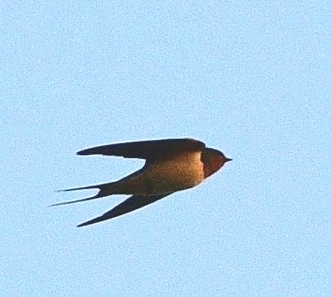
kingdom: Animalia
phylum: Chordata
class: Aves
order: Passeriformes
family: Hirundinidae
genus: Hirundo
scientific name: Hirundo rustica
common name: Barn swallow
